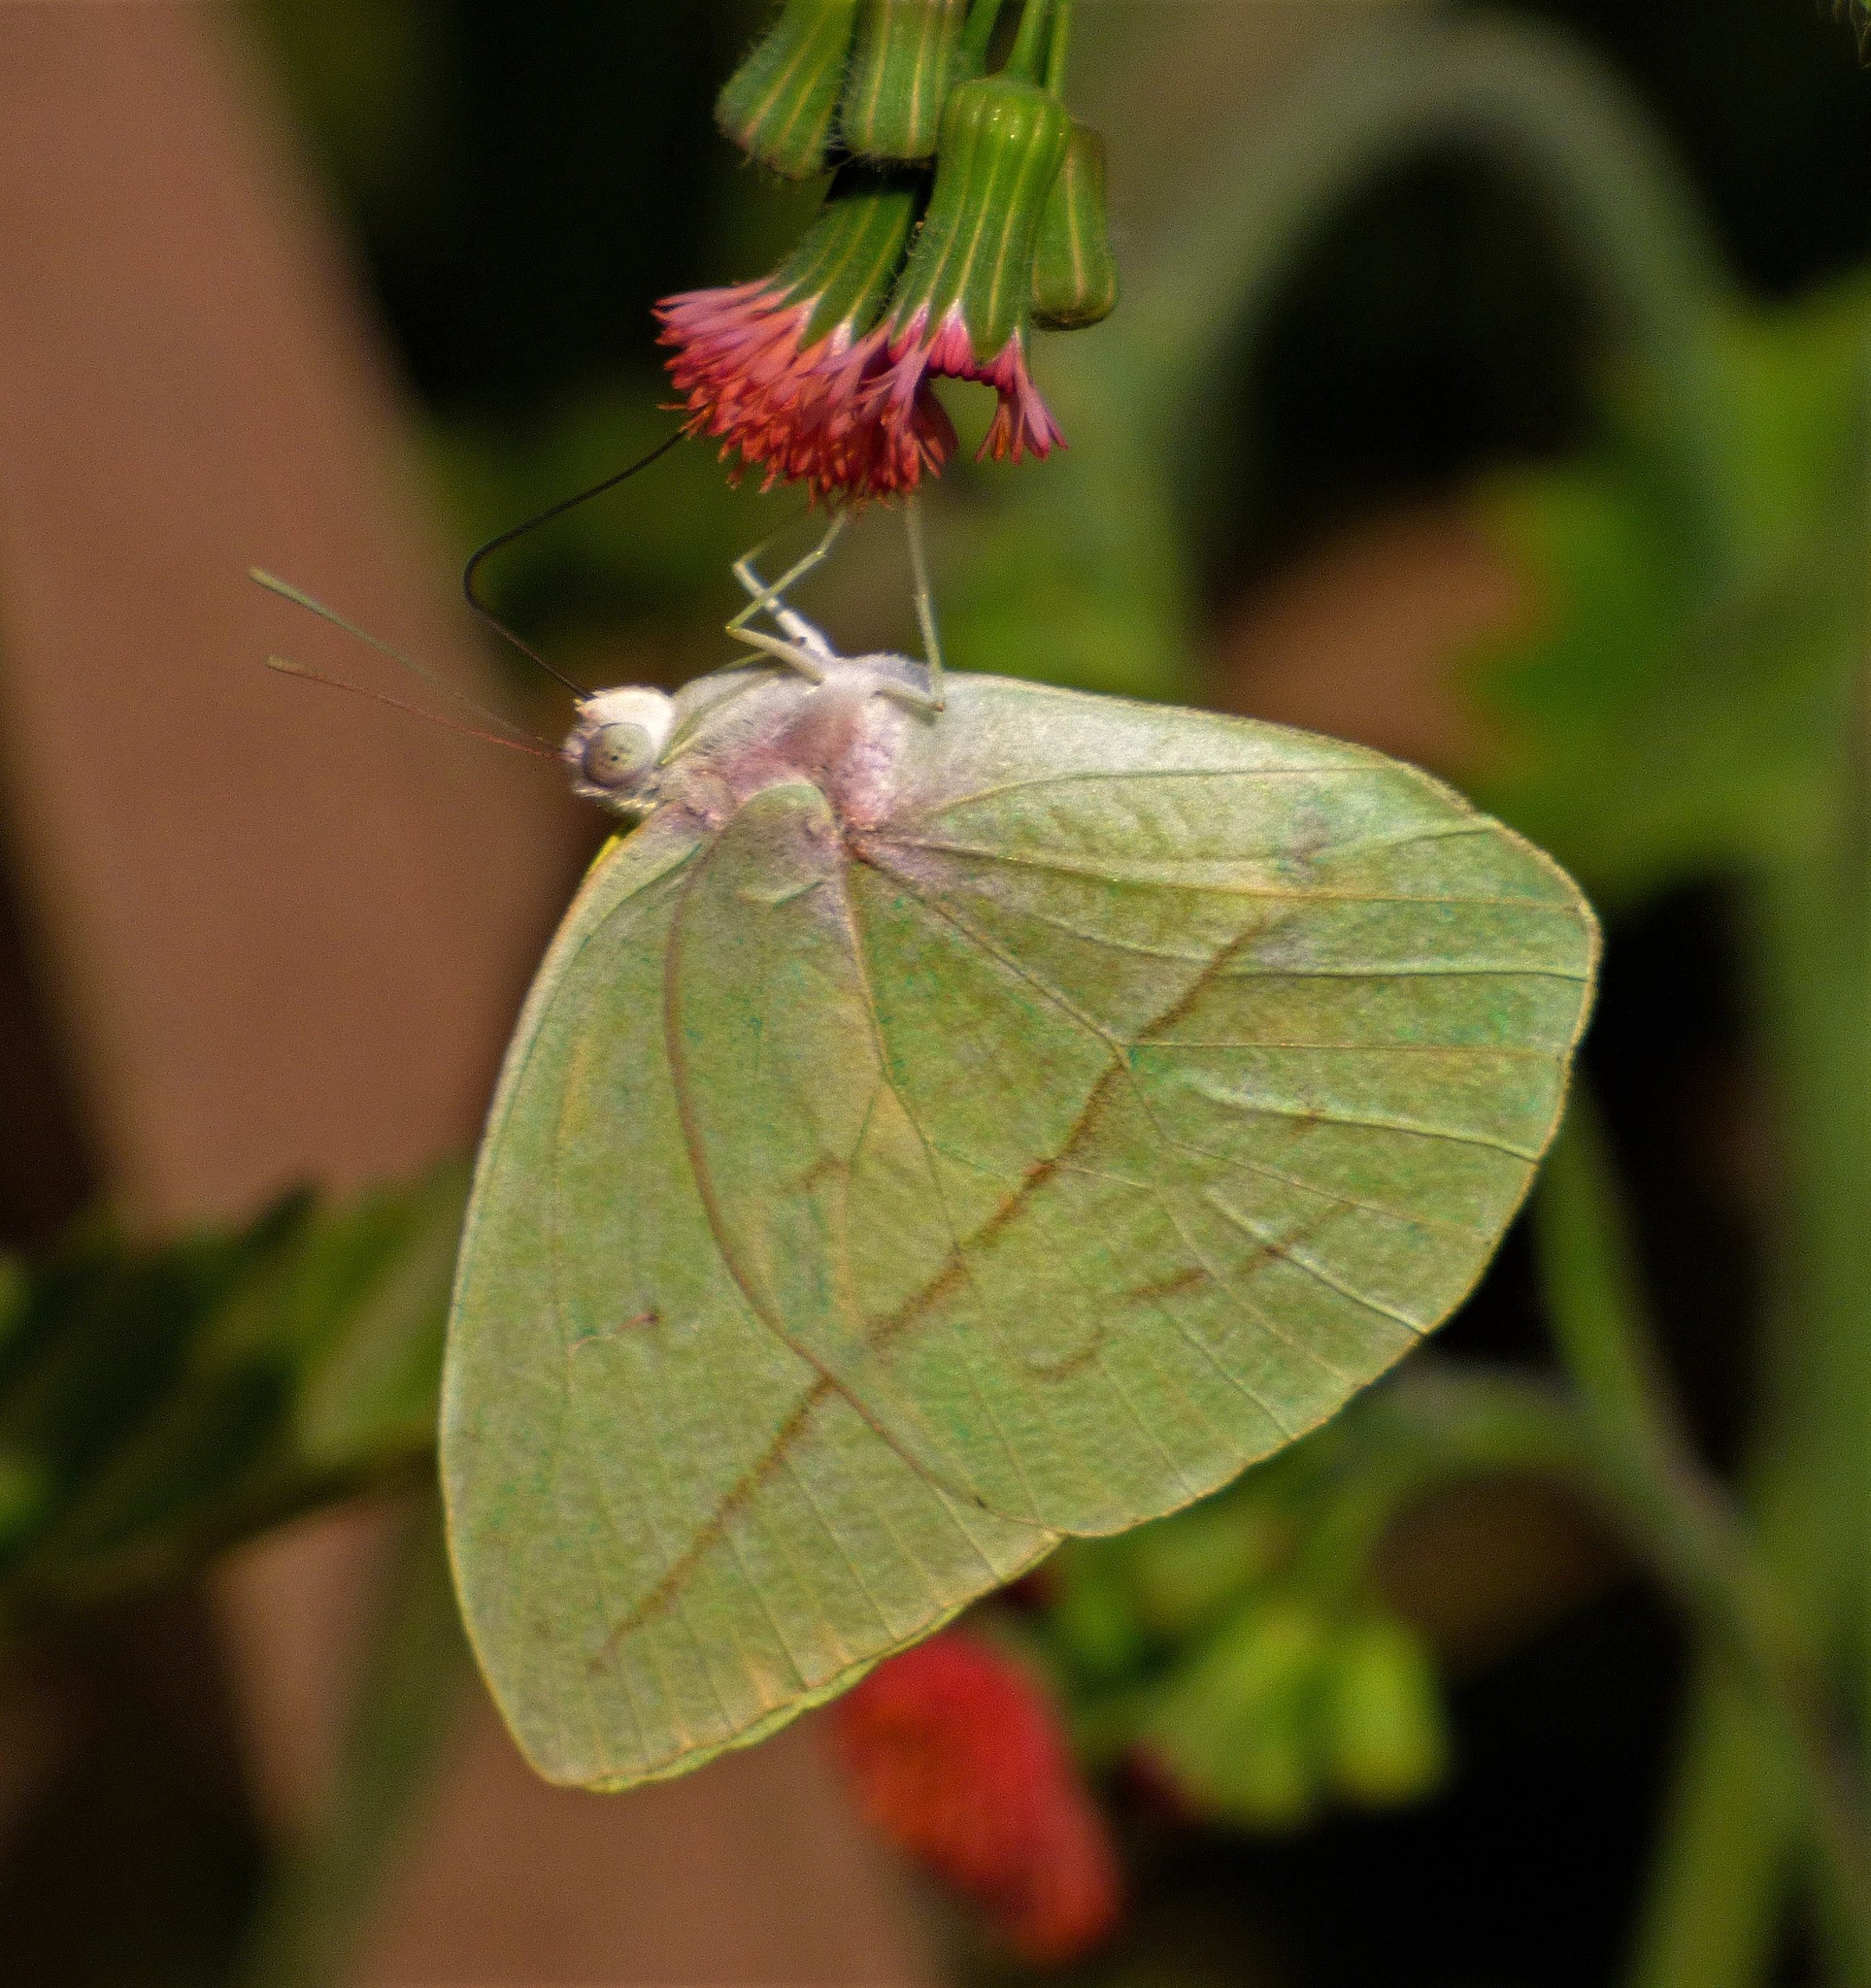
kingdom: Animalia
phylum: Arthropoda
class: Insecta
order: Lepidoptera
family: Pieridae
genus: Rhabdodryas
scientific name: Rhabdodryas trite
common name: Straight-lined sulphur
